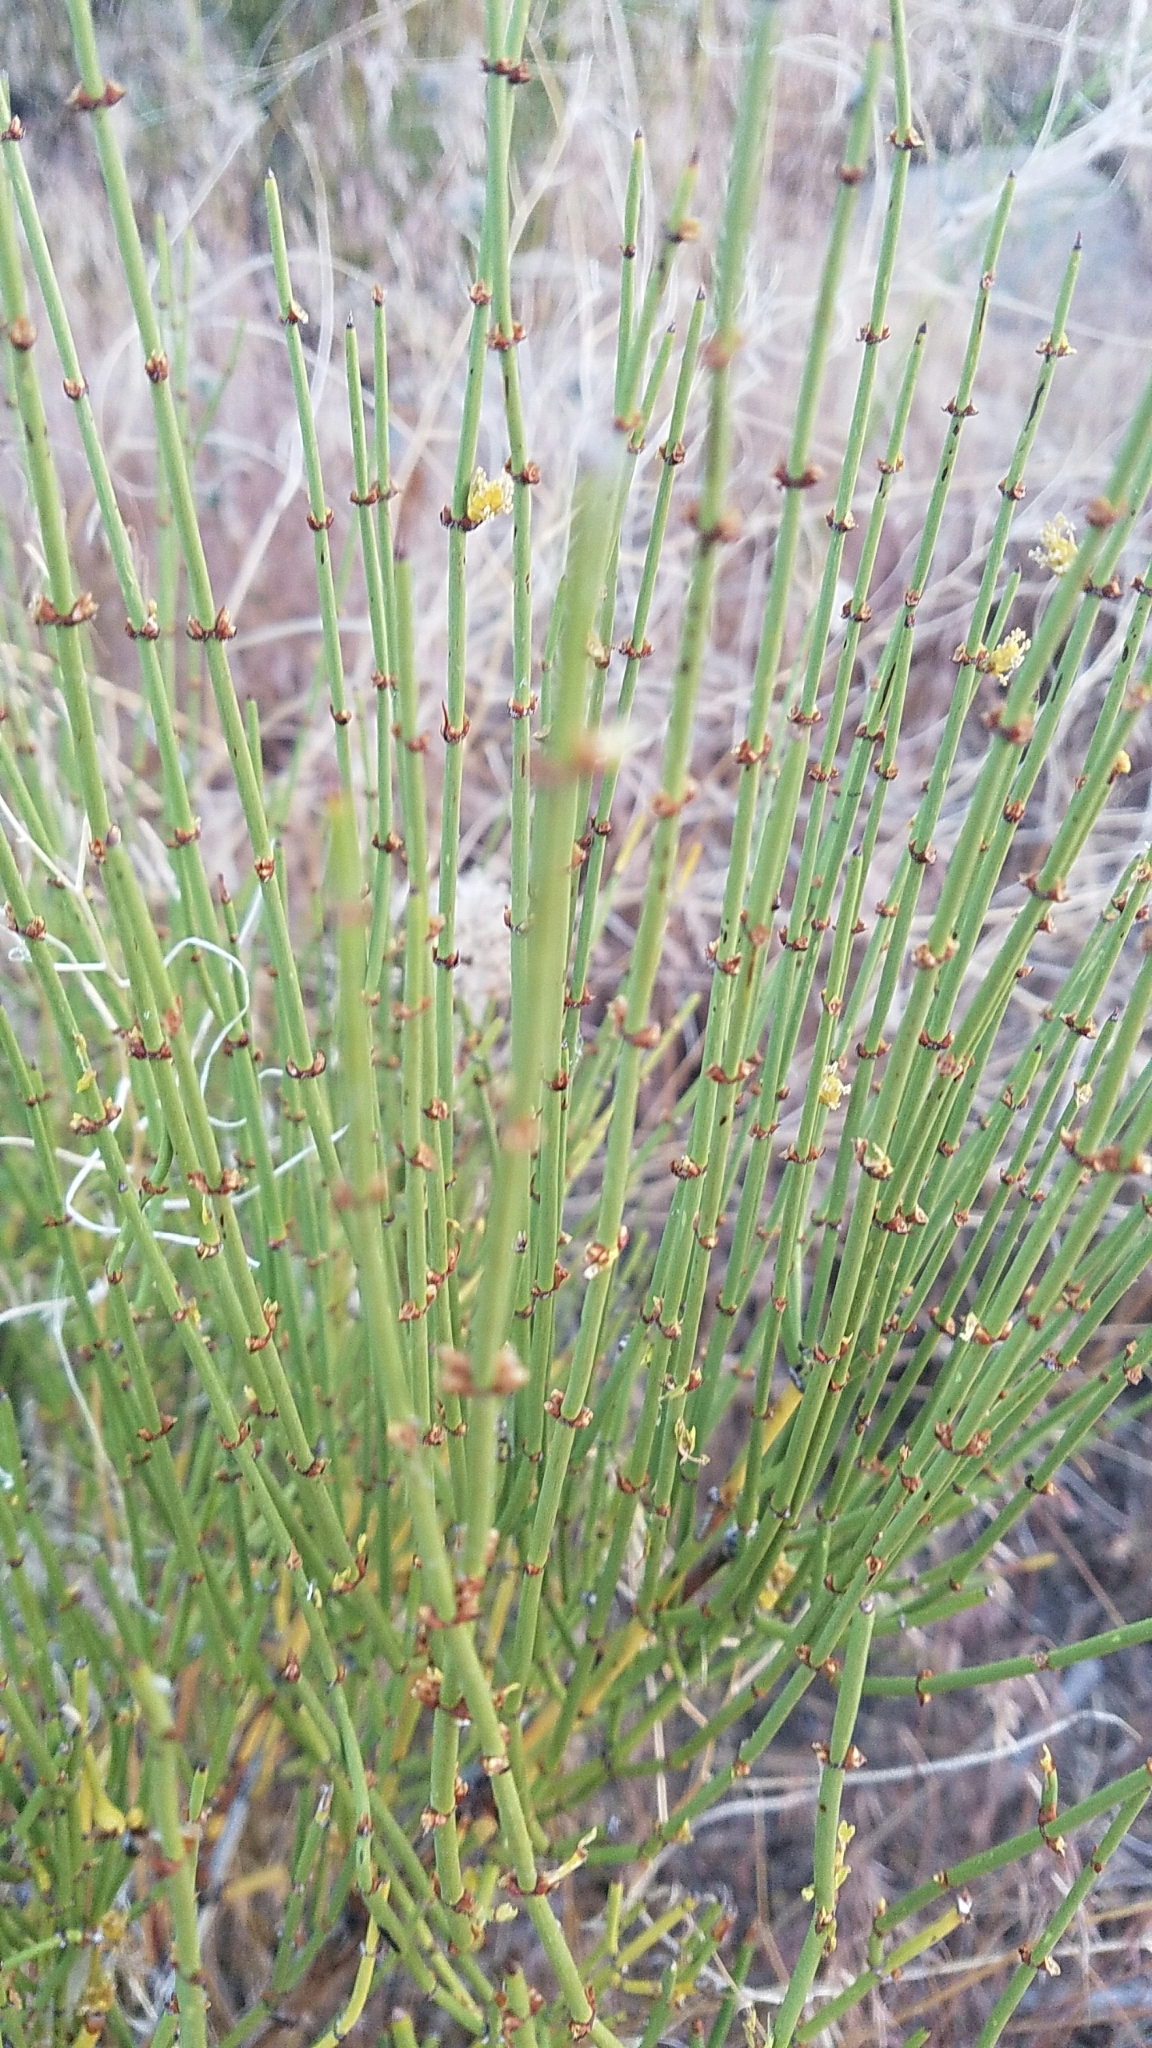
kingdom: Plantae
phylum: Tracheophyta
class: Gnetopsida
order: Ephedrales
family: Ephedraceae
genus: Ephedra
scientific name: Ephedra viridis
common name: Green ephedra
